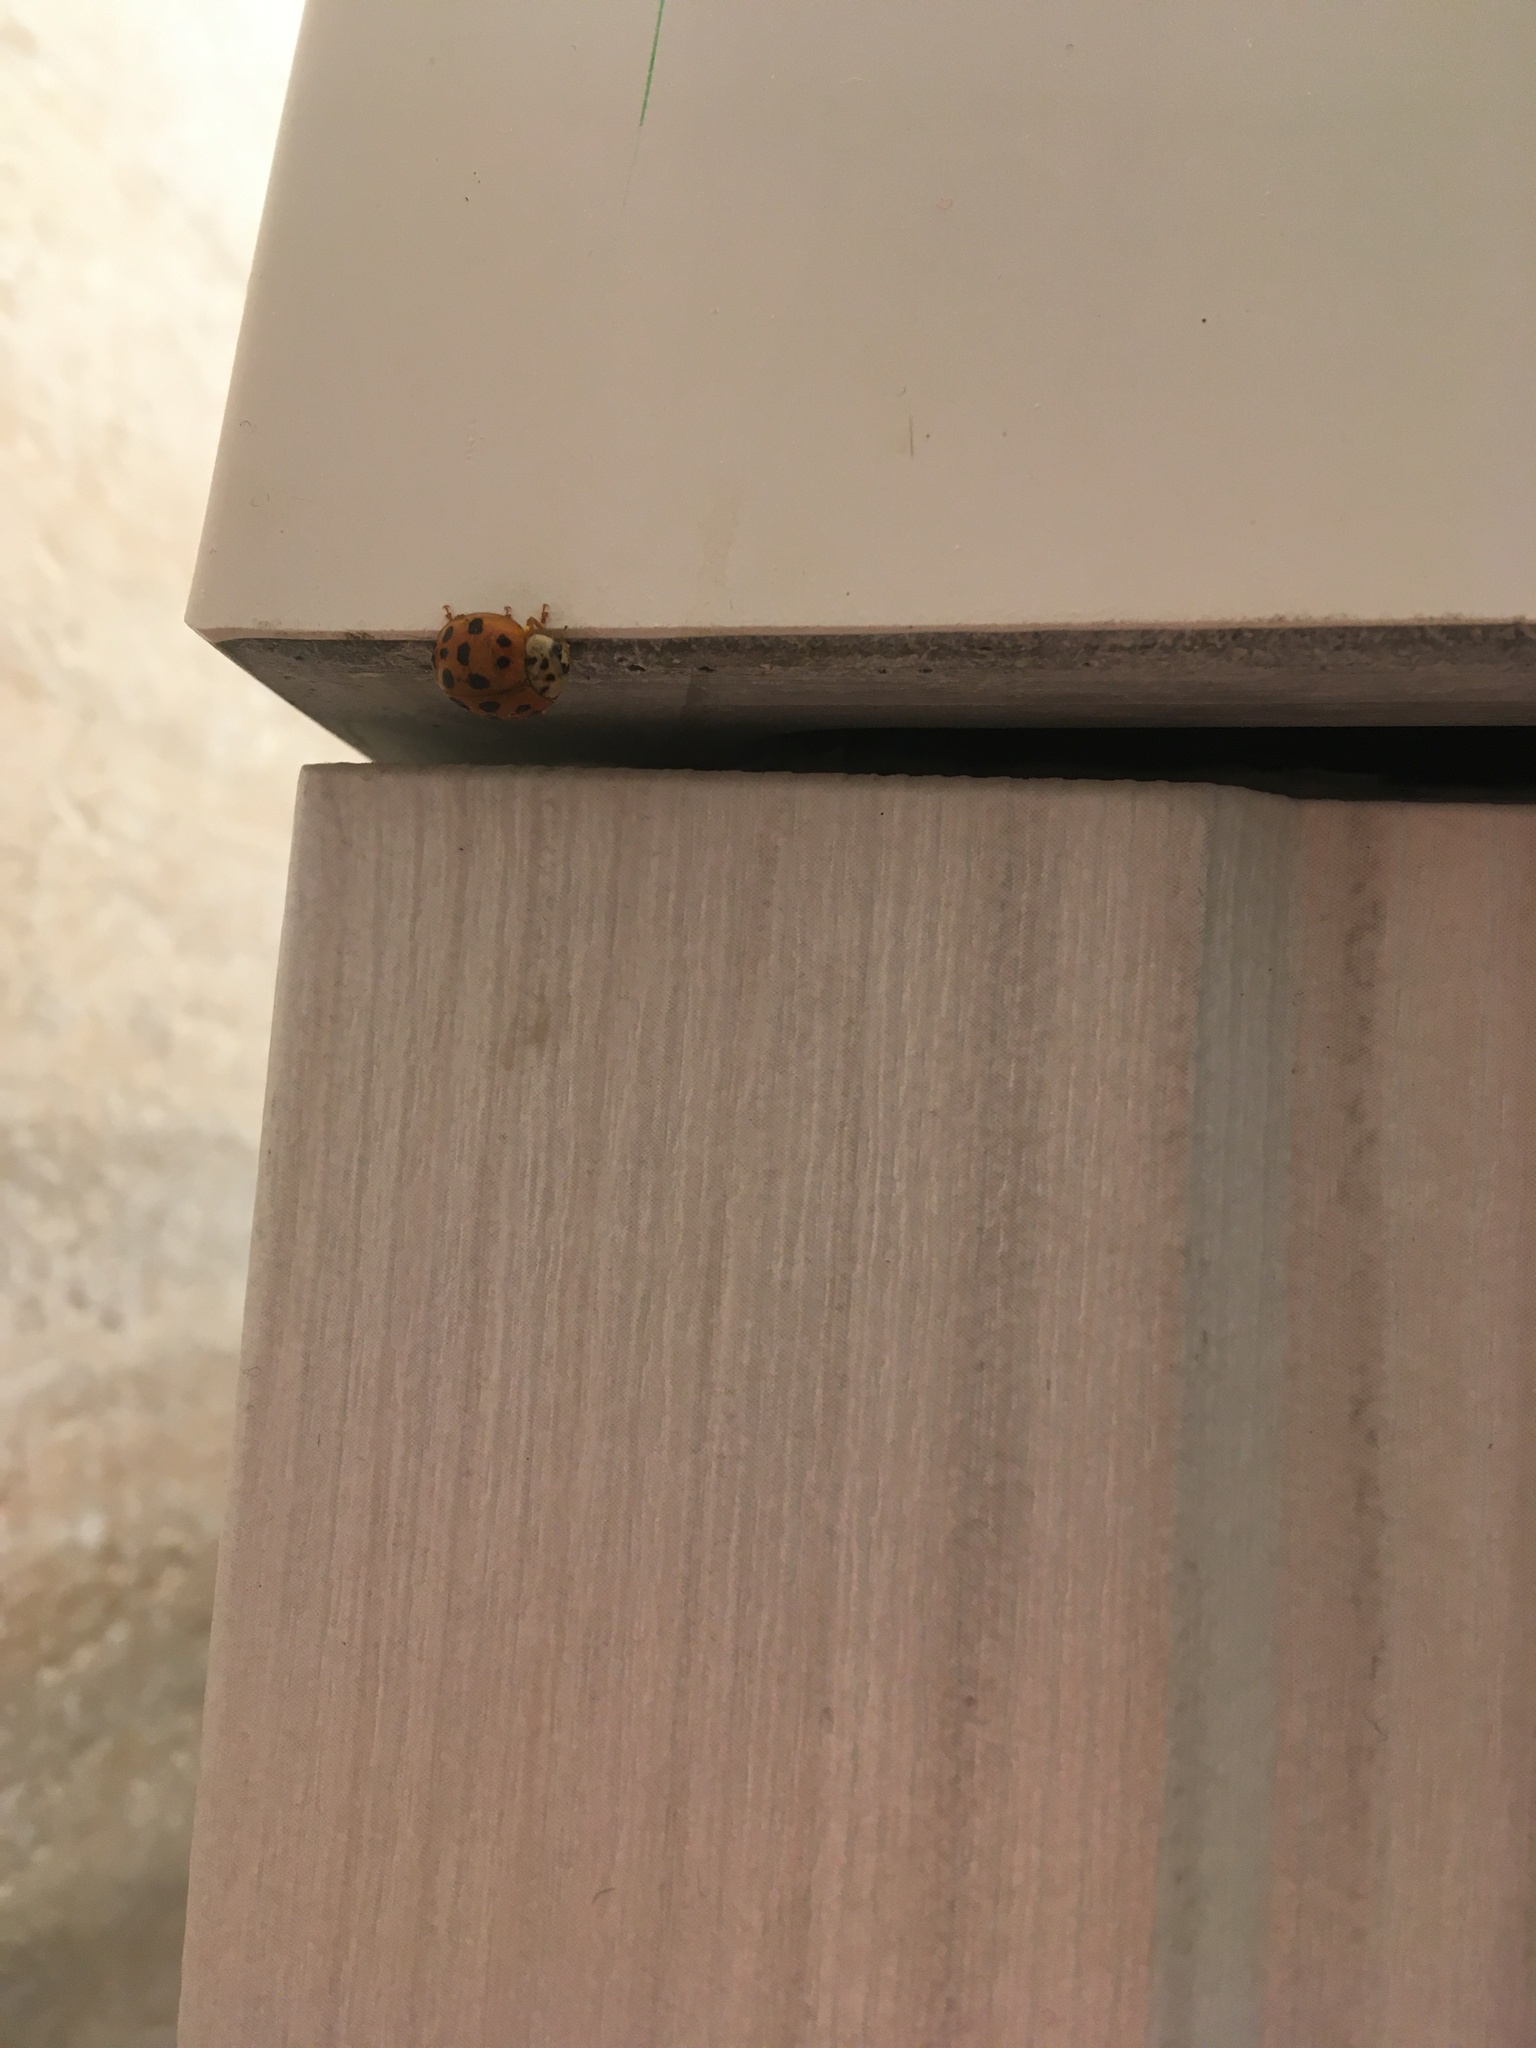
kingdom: Animalia
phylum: Arthropoda
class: Insecta
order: Coleoptera
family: Coccinellidae
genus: Harmonia
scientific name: Harmonia axyridis
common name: Harlequin ladybird
